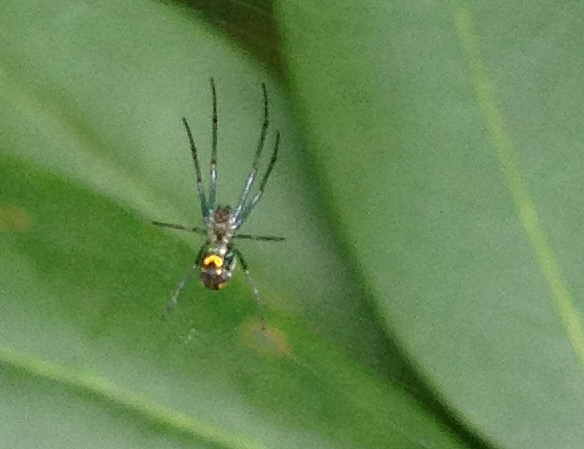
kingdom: Animalia
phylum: Arthropoda
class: Arachnida
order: Araneae
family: Tetragnathidae
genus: Leucauge
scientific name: Leucauge venusta
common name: Longjawed orb weavers
